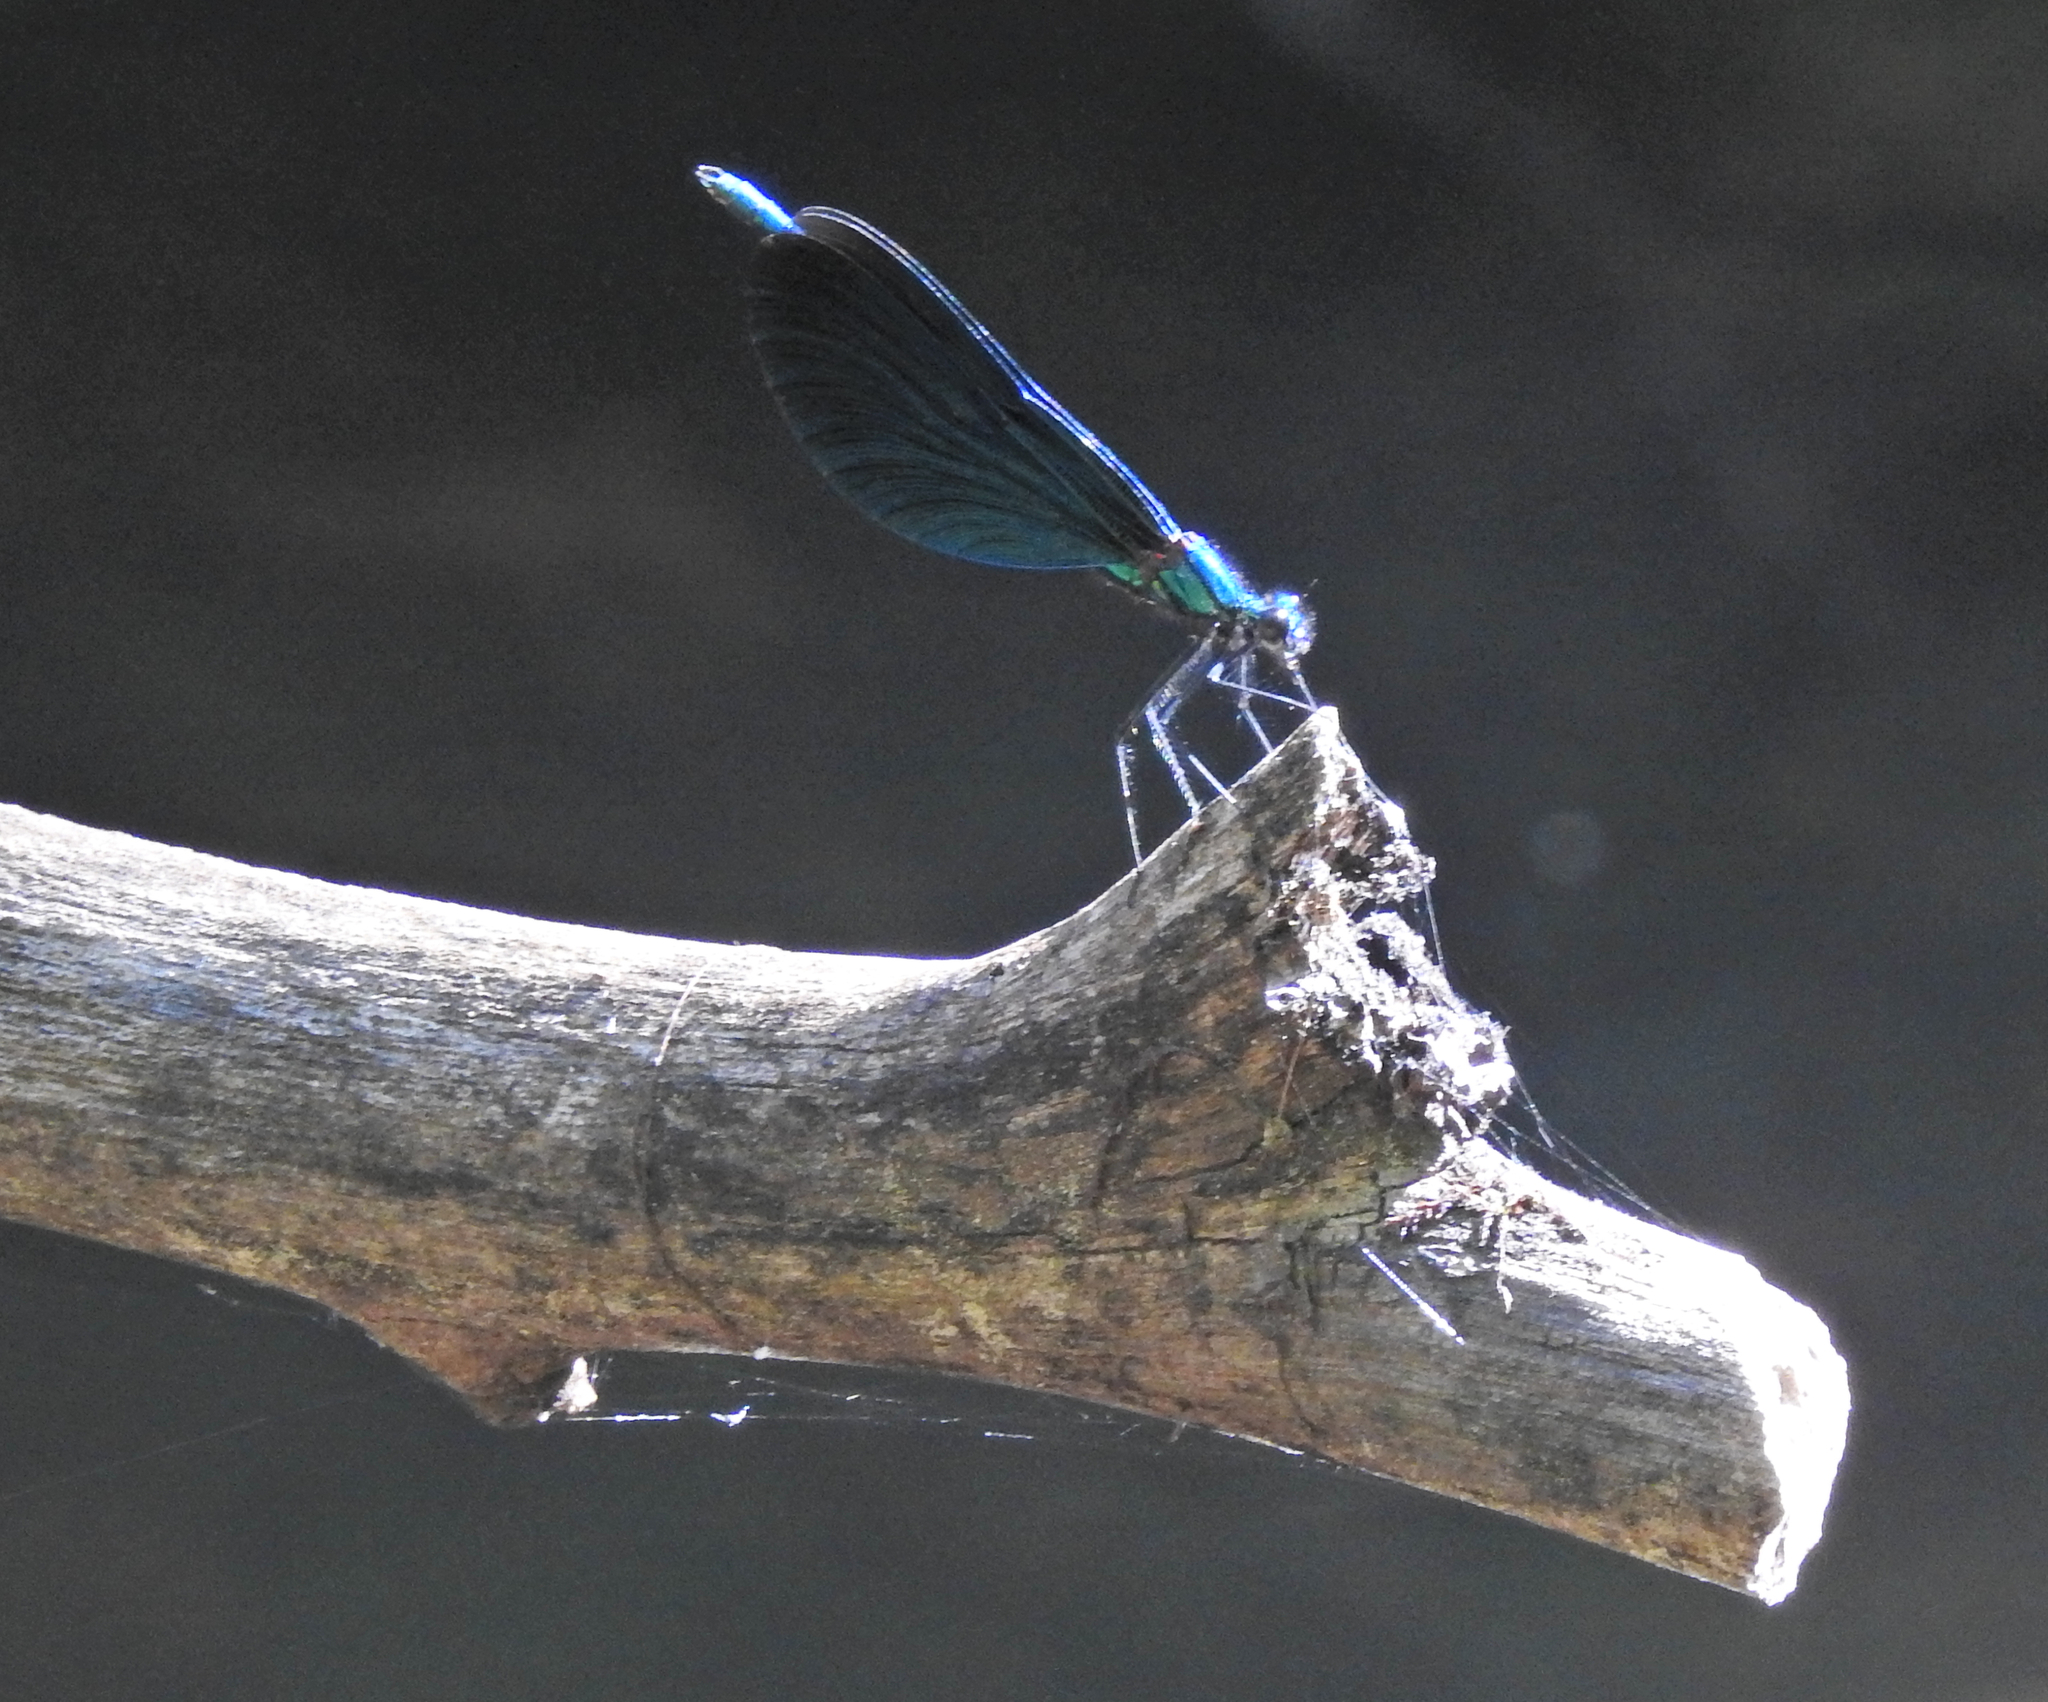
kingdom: Animalia
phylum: Arthropoda
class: Insecta
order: Odonata
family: Calopterygidae
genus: Calopteryx
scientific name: Calopteryx virgo
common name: Beautiful demoiselle
